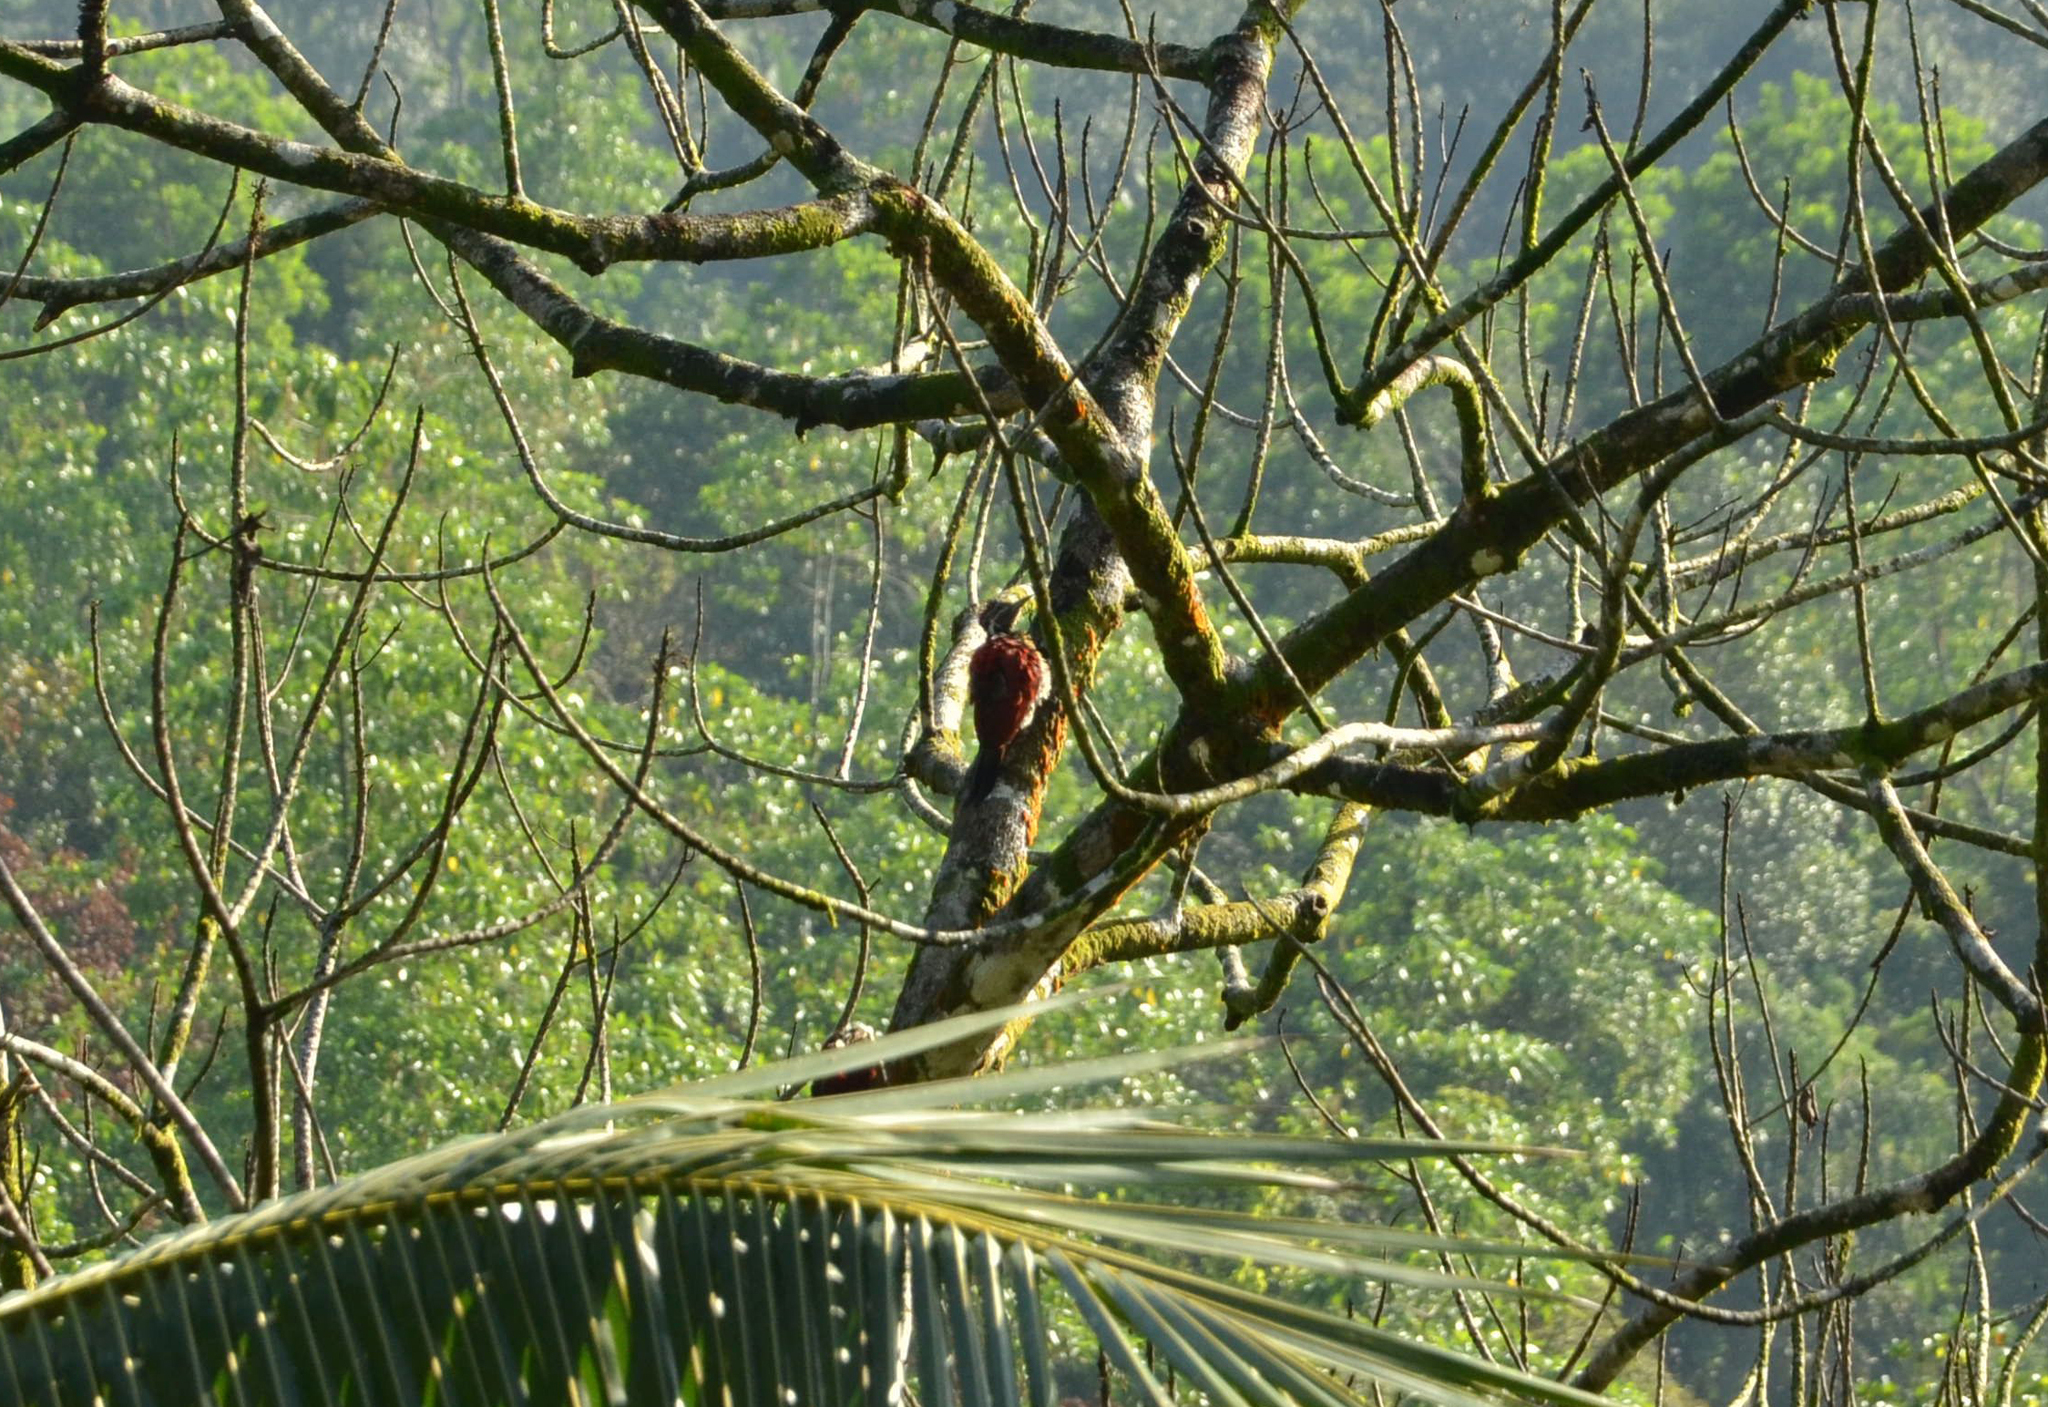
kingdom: Animalia
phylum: Chordata
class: Aves
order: Piciformes
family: Picidae
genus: Dinopium
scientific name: Dinopium psarodes
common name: Red-backed flameback
